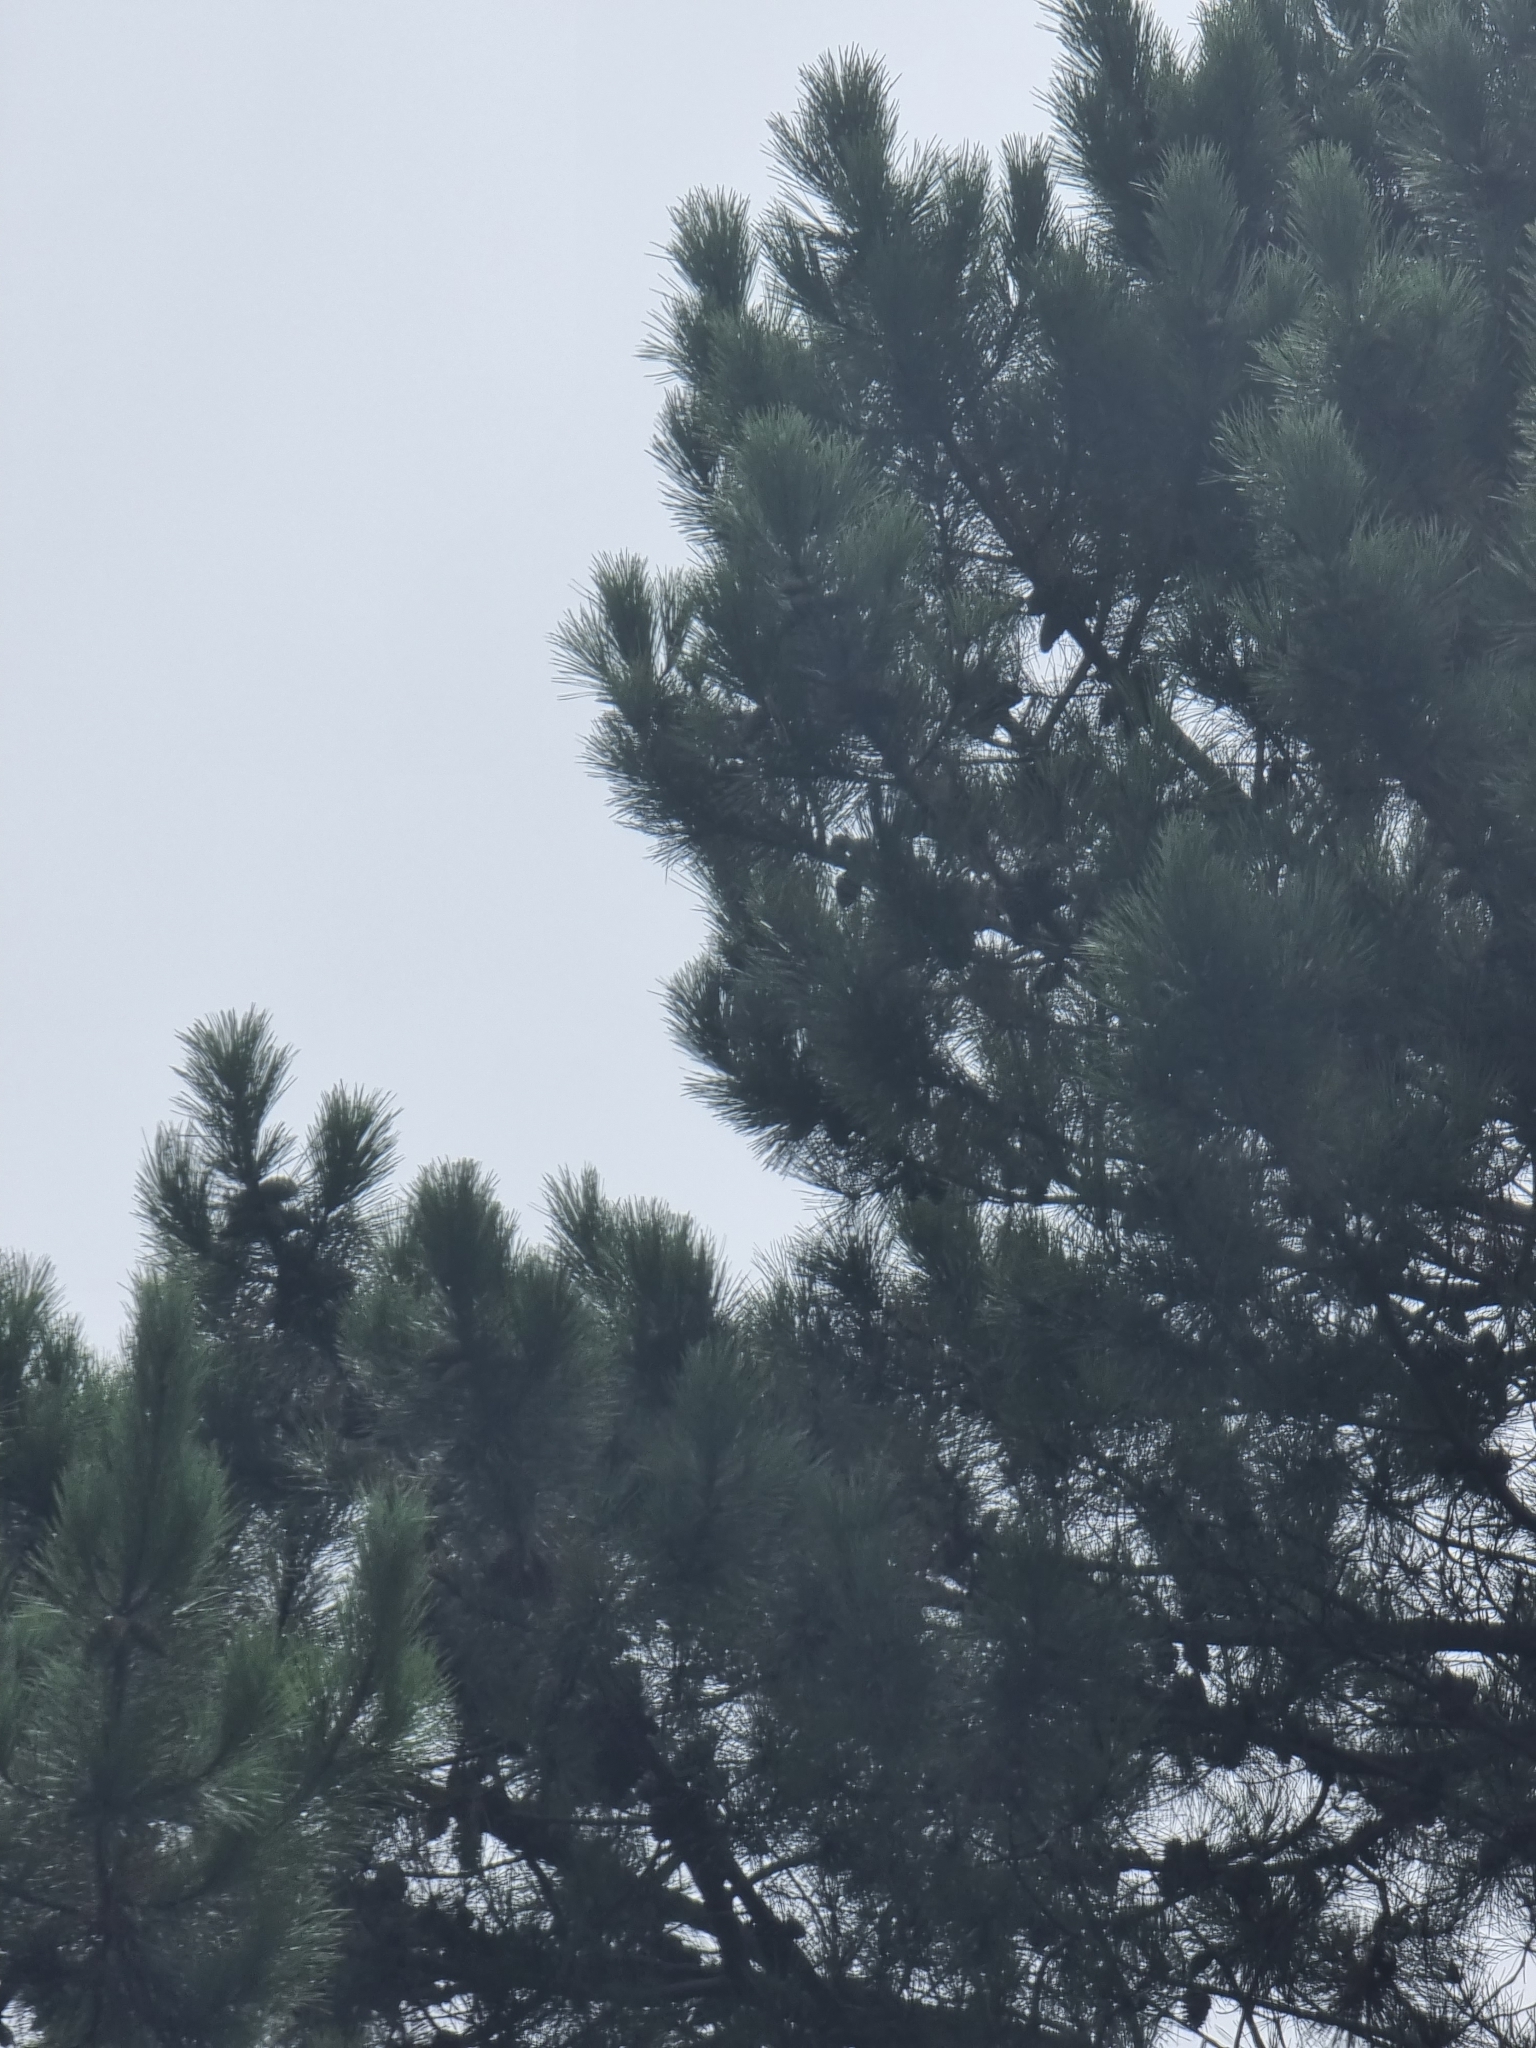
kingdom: Plantae
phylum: Tracheophyta
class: Pinopsida
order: Pinales
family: Pinaceae
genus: Pinus
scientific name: Pinus pinaster
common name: Maritime pine
